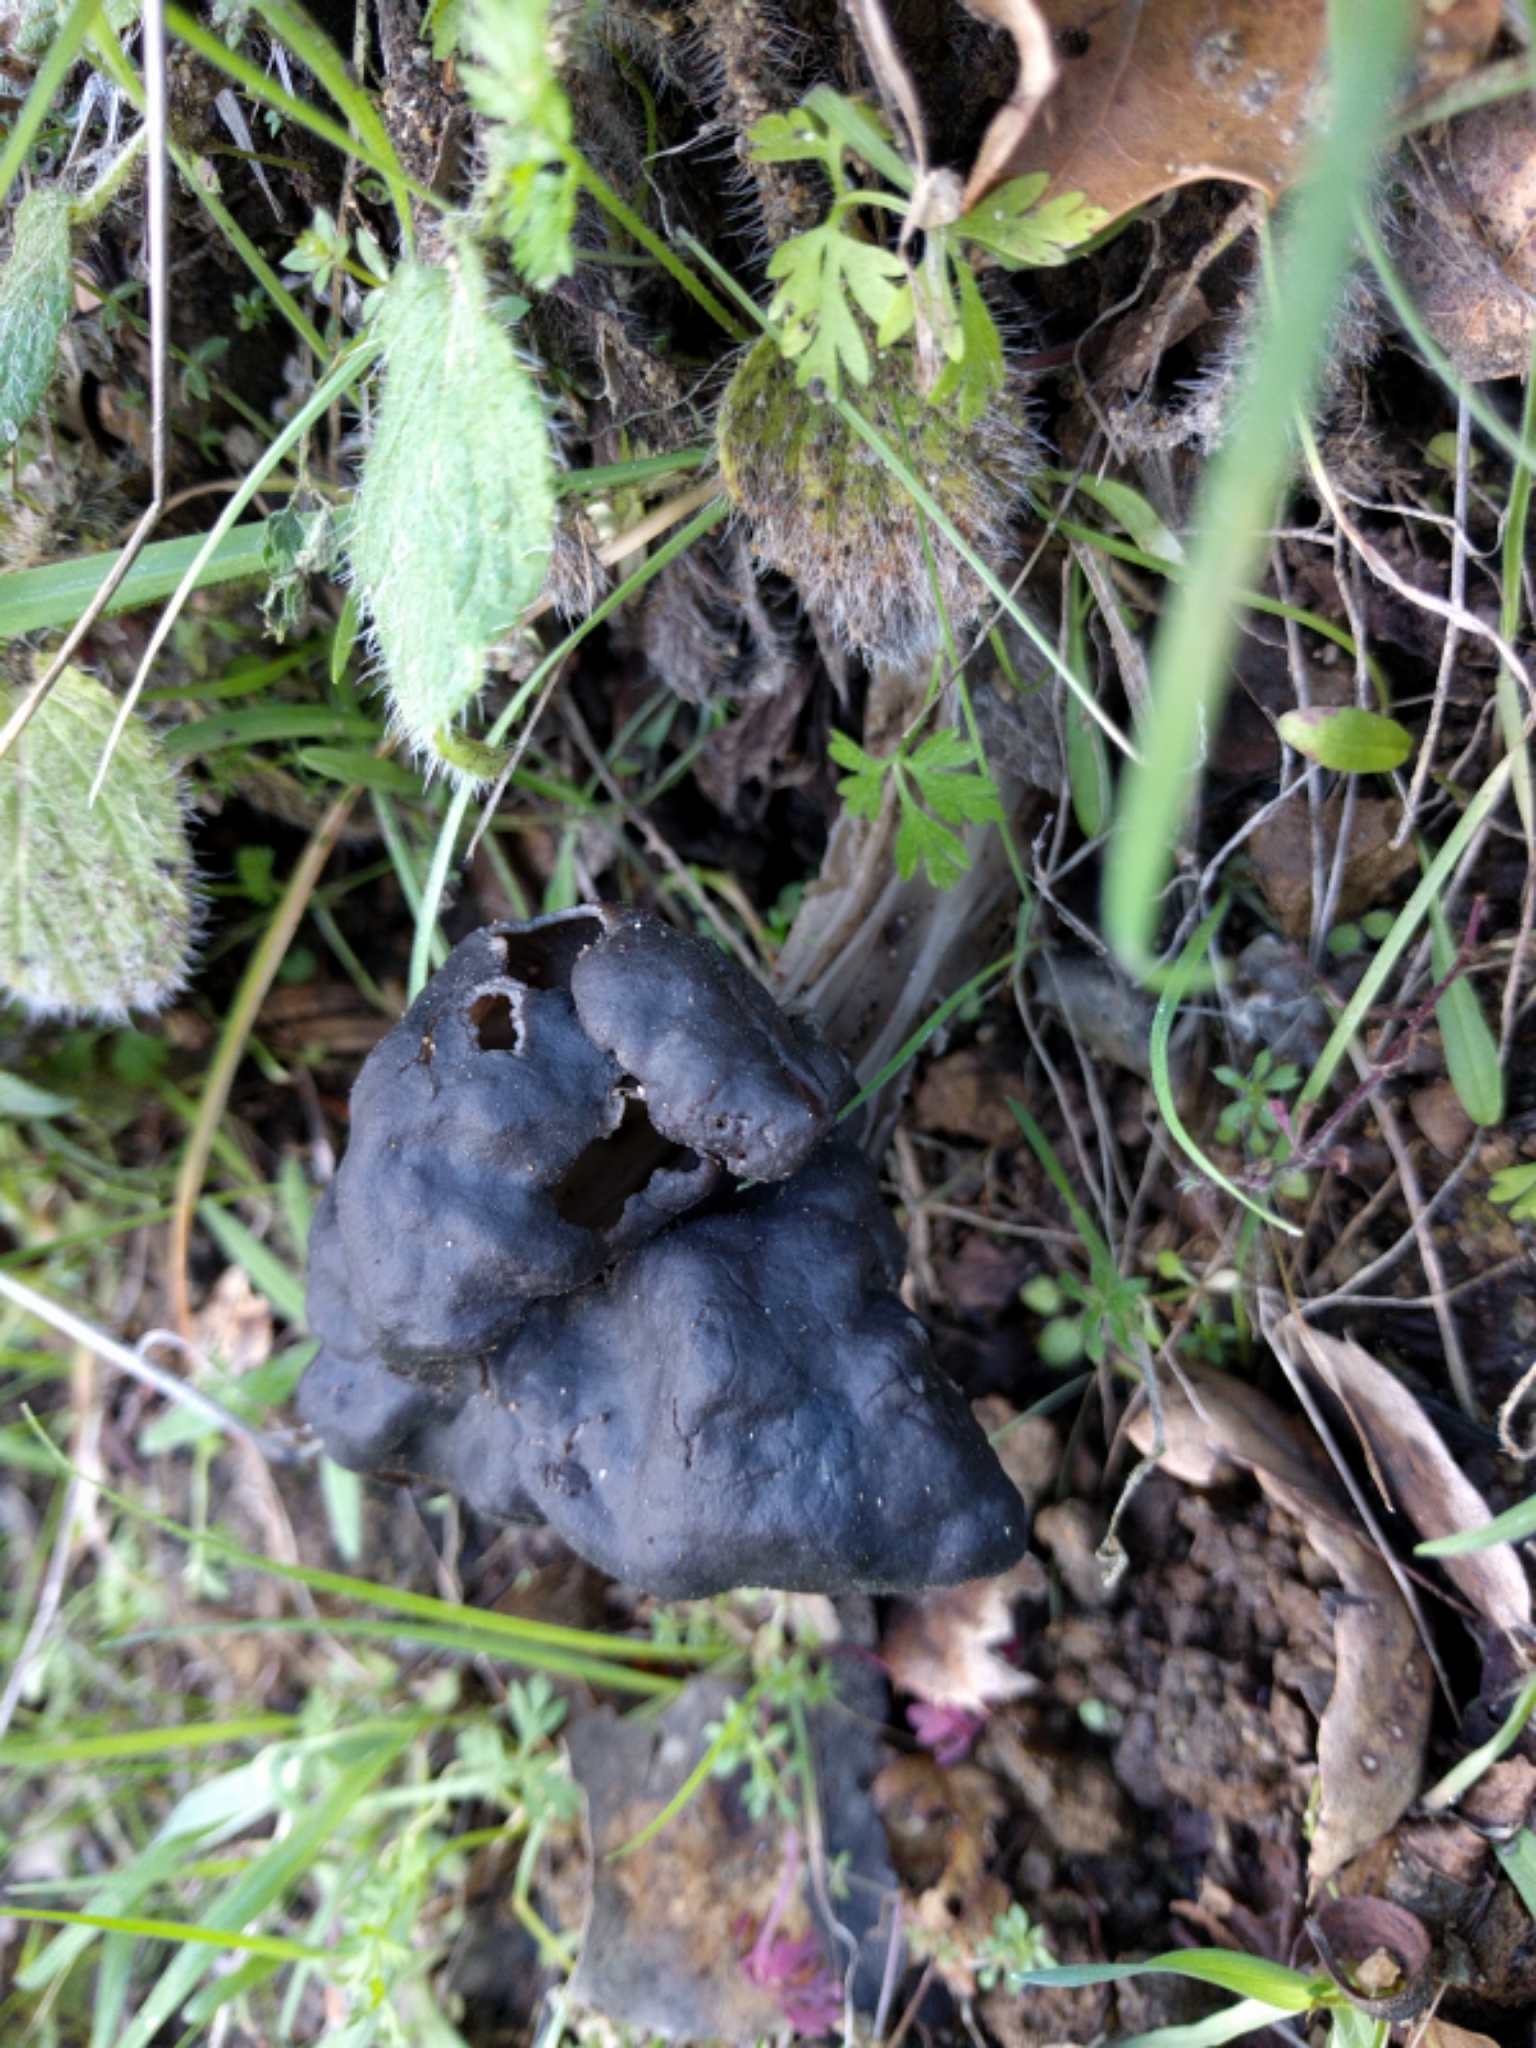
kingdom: Fungi
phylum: Ascomycota
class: Pezizomycetes
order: Pezizales
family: Helvellaceae
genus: Helvella
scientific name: Helvella dryophila
